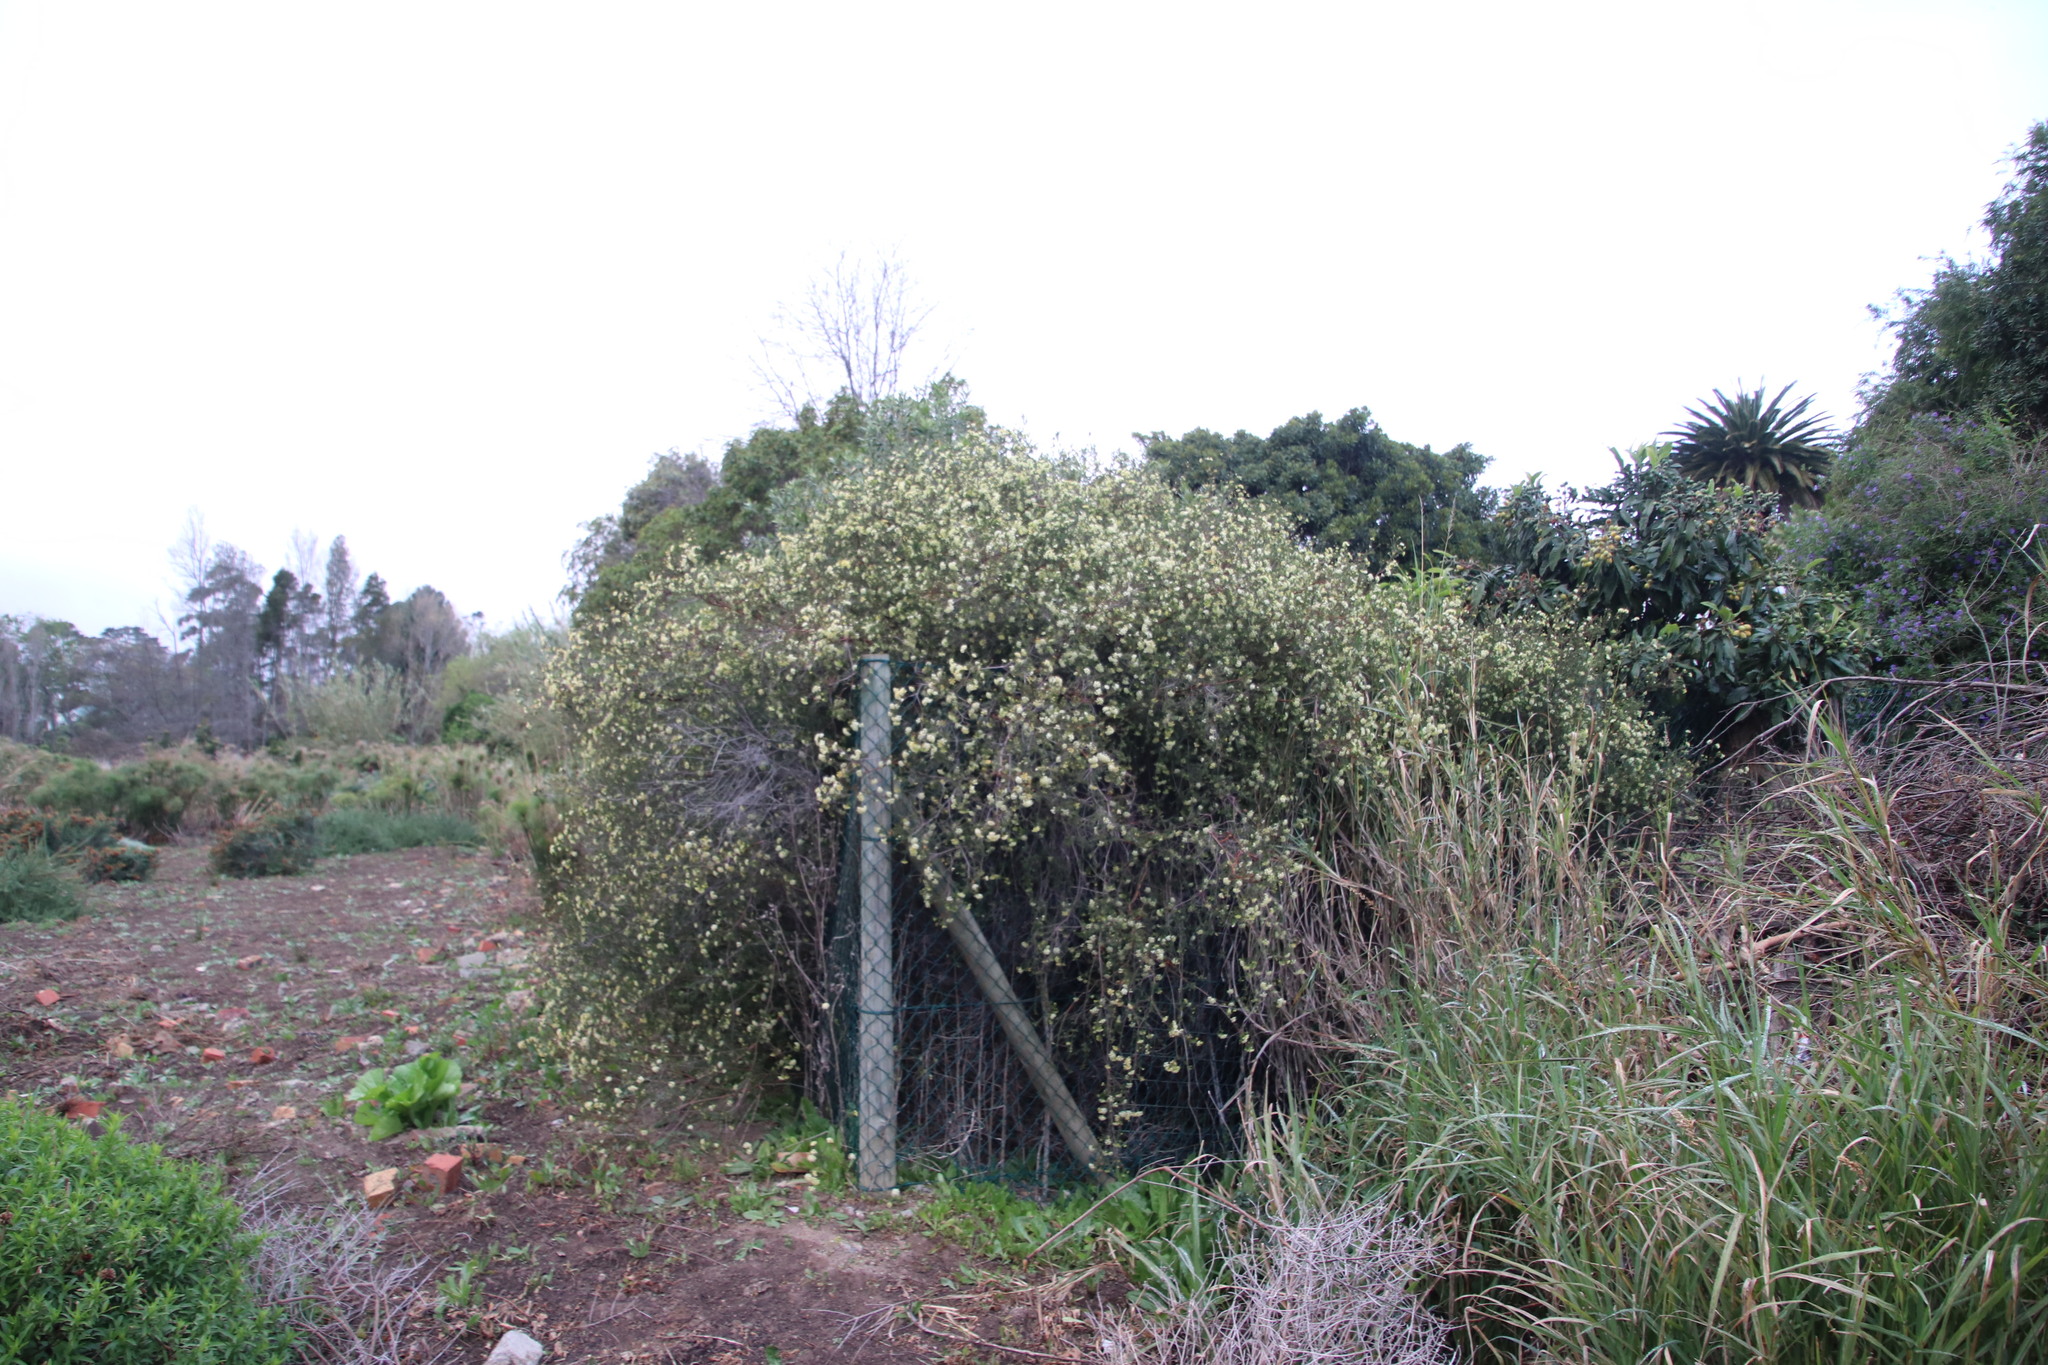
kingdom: Plantae
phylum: Tracheophyta
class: Magnoliopsida
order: Malvales
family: Thymelaeaceae
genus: Gnidia
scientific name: Gnidia squarrosa
